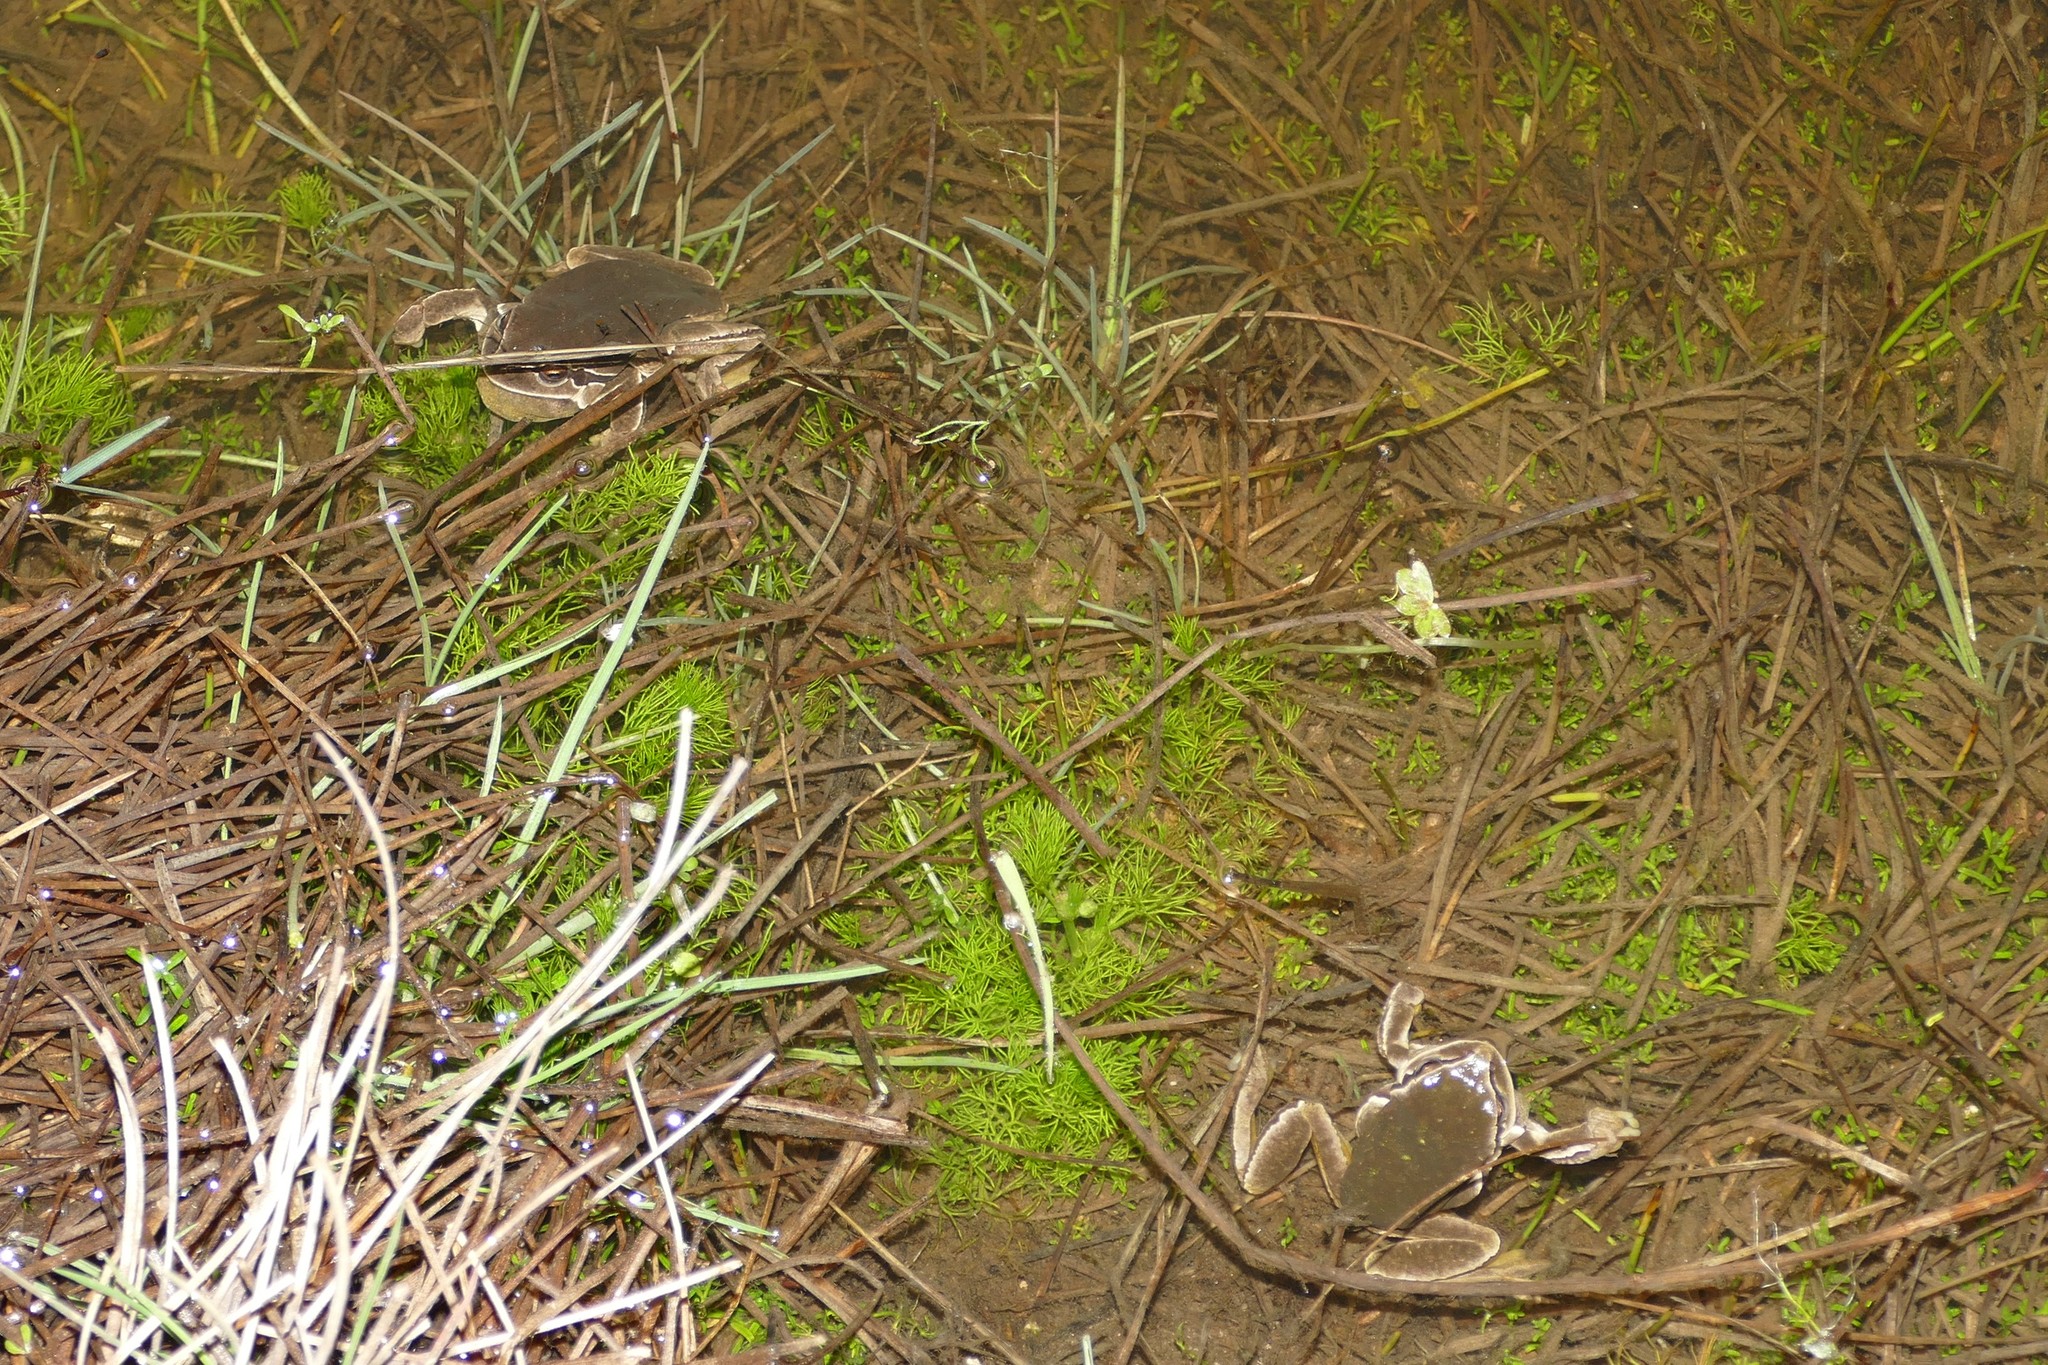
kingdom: Animalia
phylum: Chordata
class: Amphibia
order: Anura
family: Hylidae
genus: Hyla
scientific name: Hyla molleri
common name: Iberian tree frog
